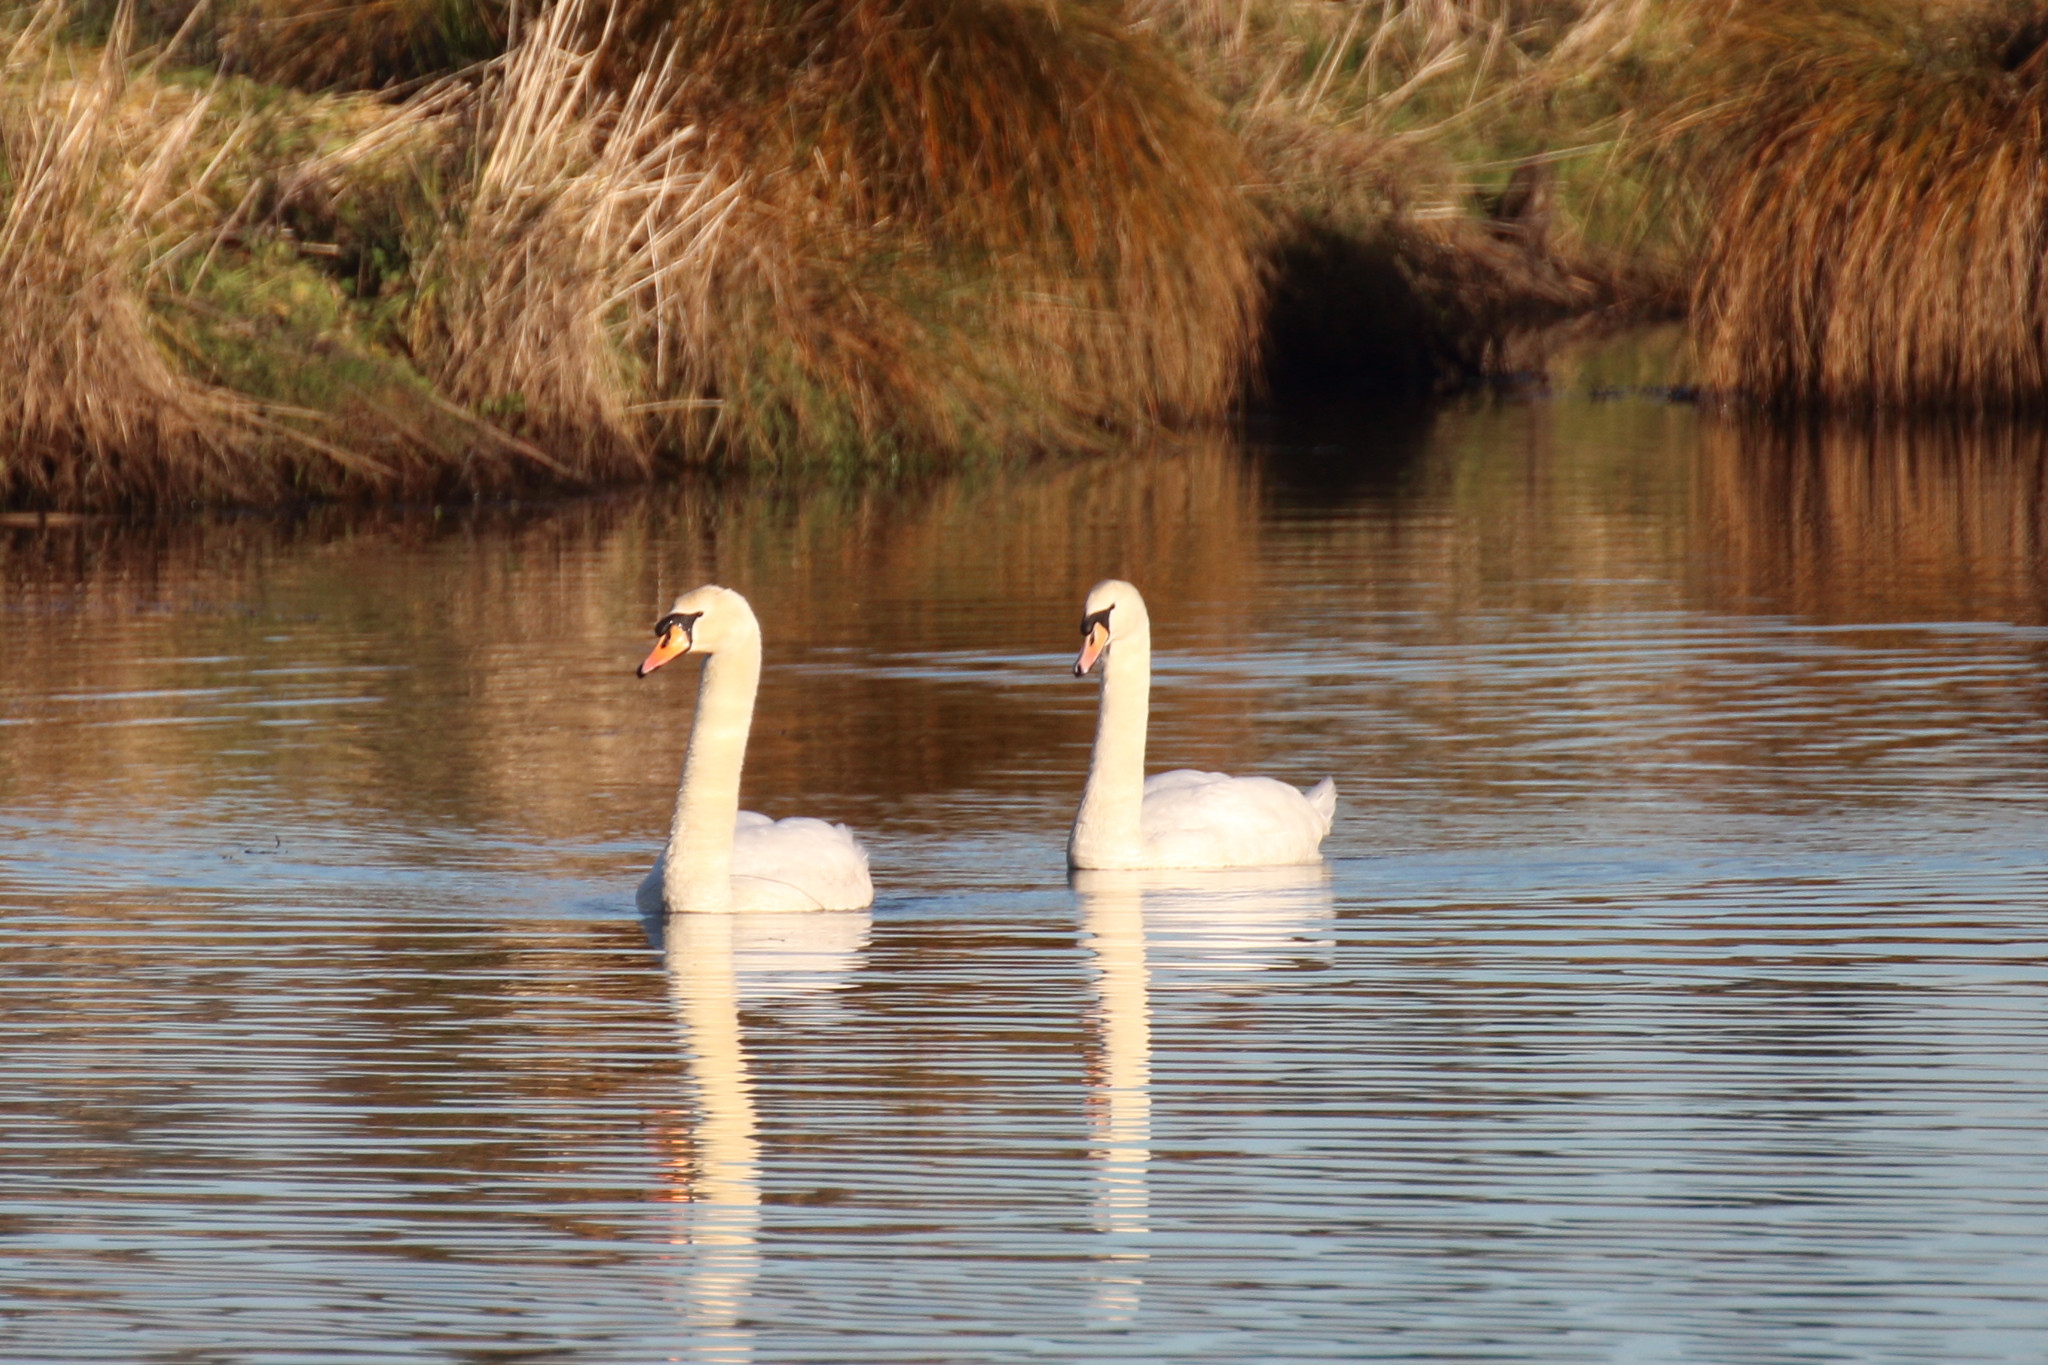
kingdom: Animalia
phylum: Chordata
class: Aves
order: Anseriformes
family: Anatidae
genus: Cygnus
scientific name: Cygnus olor
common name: Mute swan
